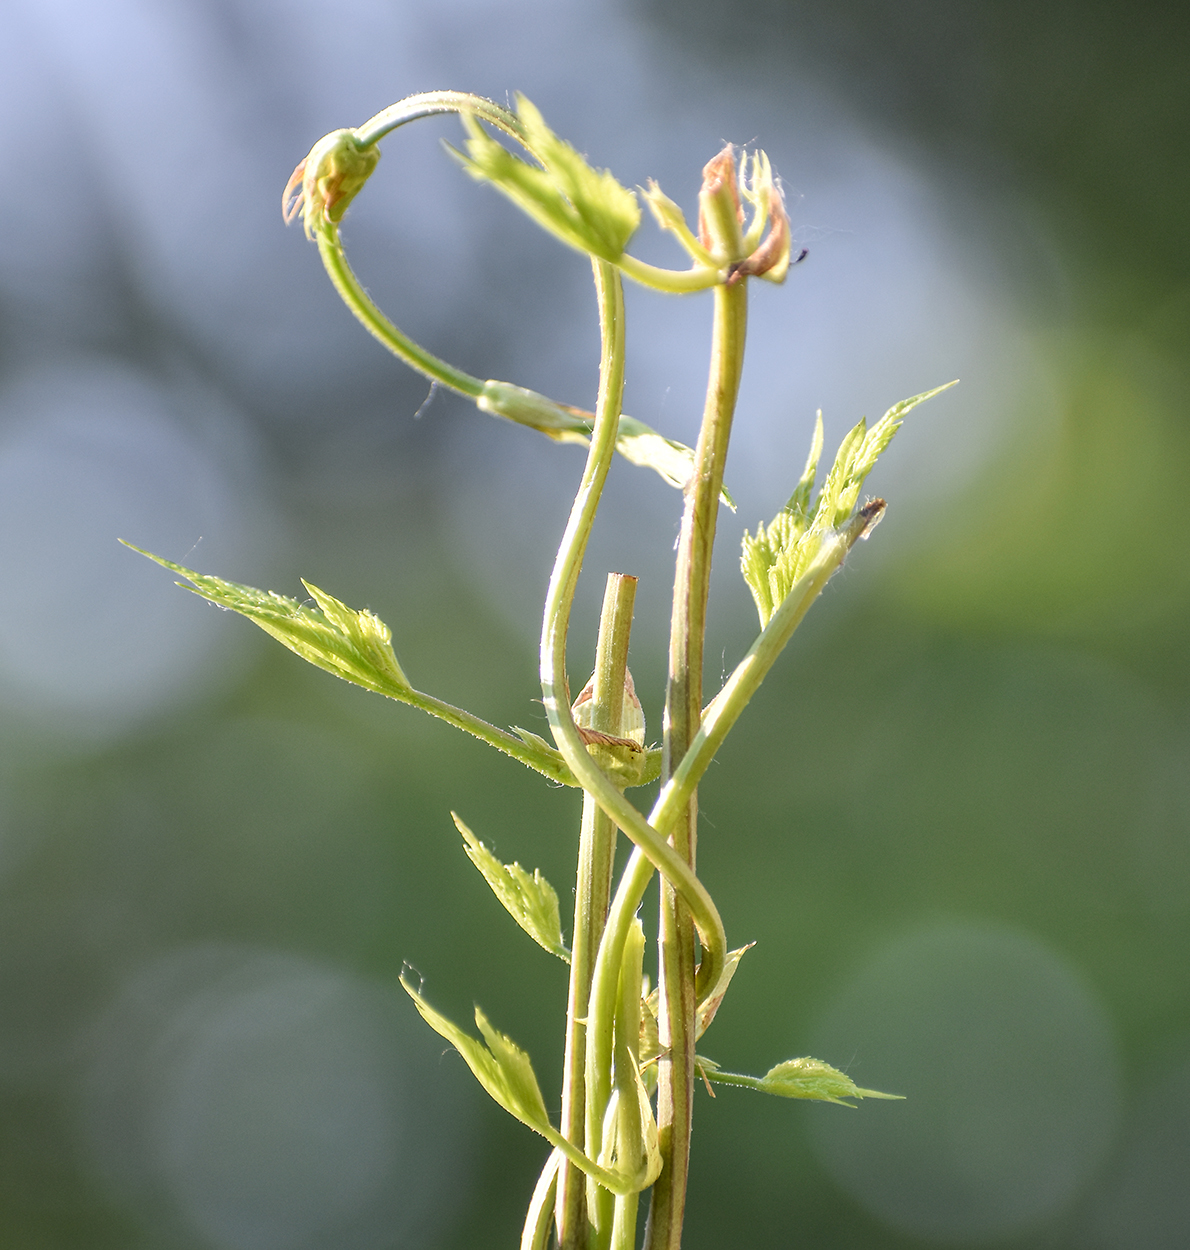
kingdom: Plantae
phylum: Tracheophyta
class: Magnoliopsida
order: Rosales
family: Cannabaceae
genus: Humulus
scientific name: Humulus lupulus
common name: Hop
